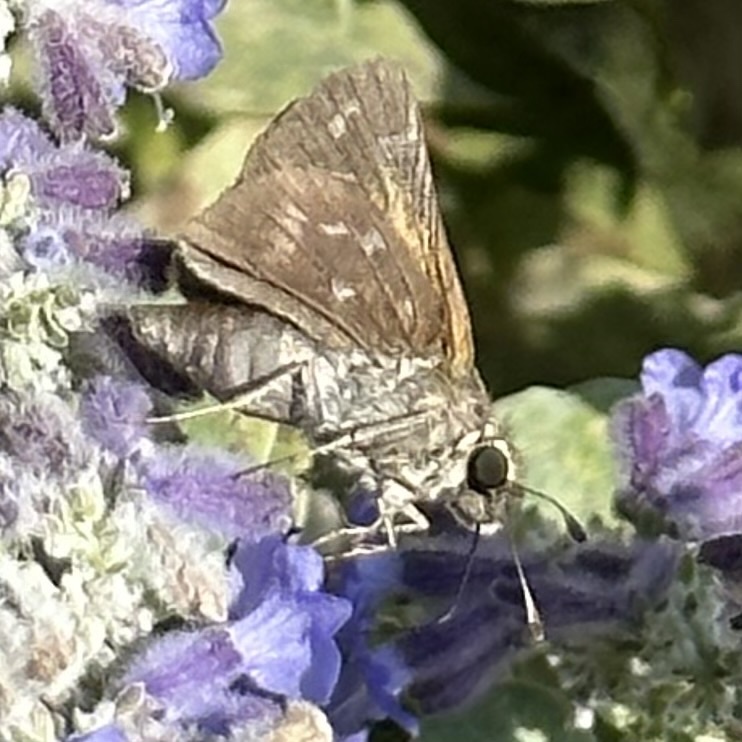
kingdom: Animalia
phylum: Arthropoda
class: Insecta
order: Lepidoptera
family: Hesperiidae
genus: Atalopedes
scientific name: Atalopedes
